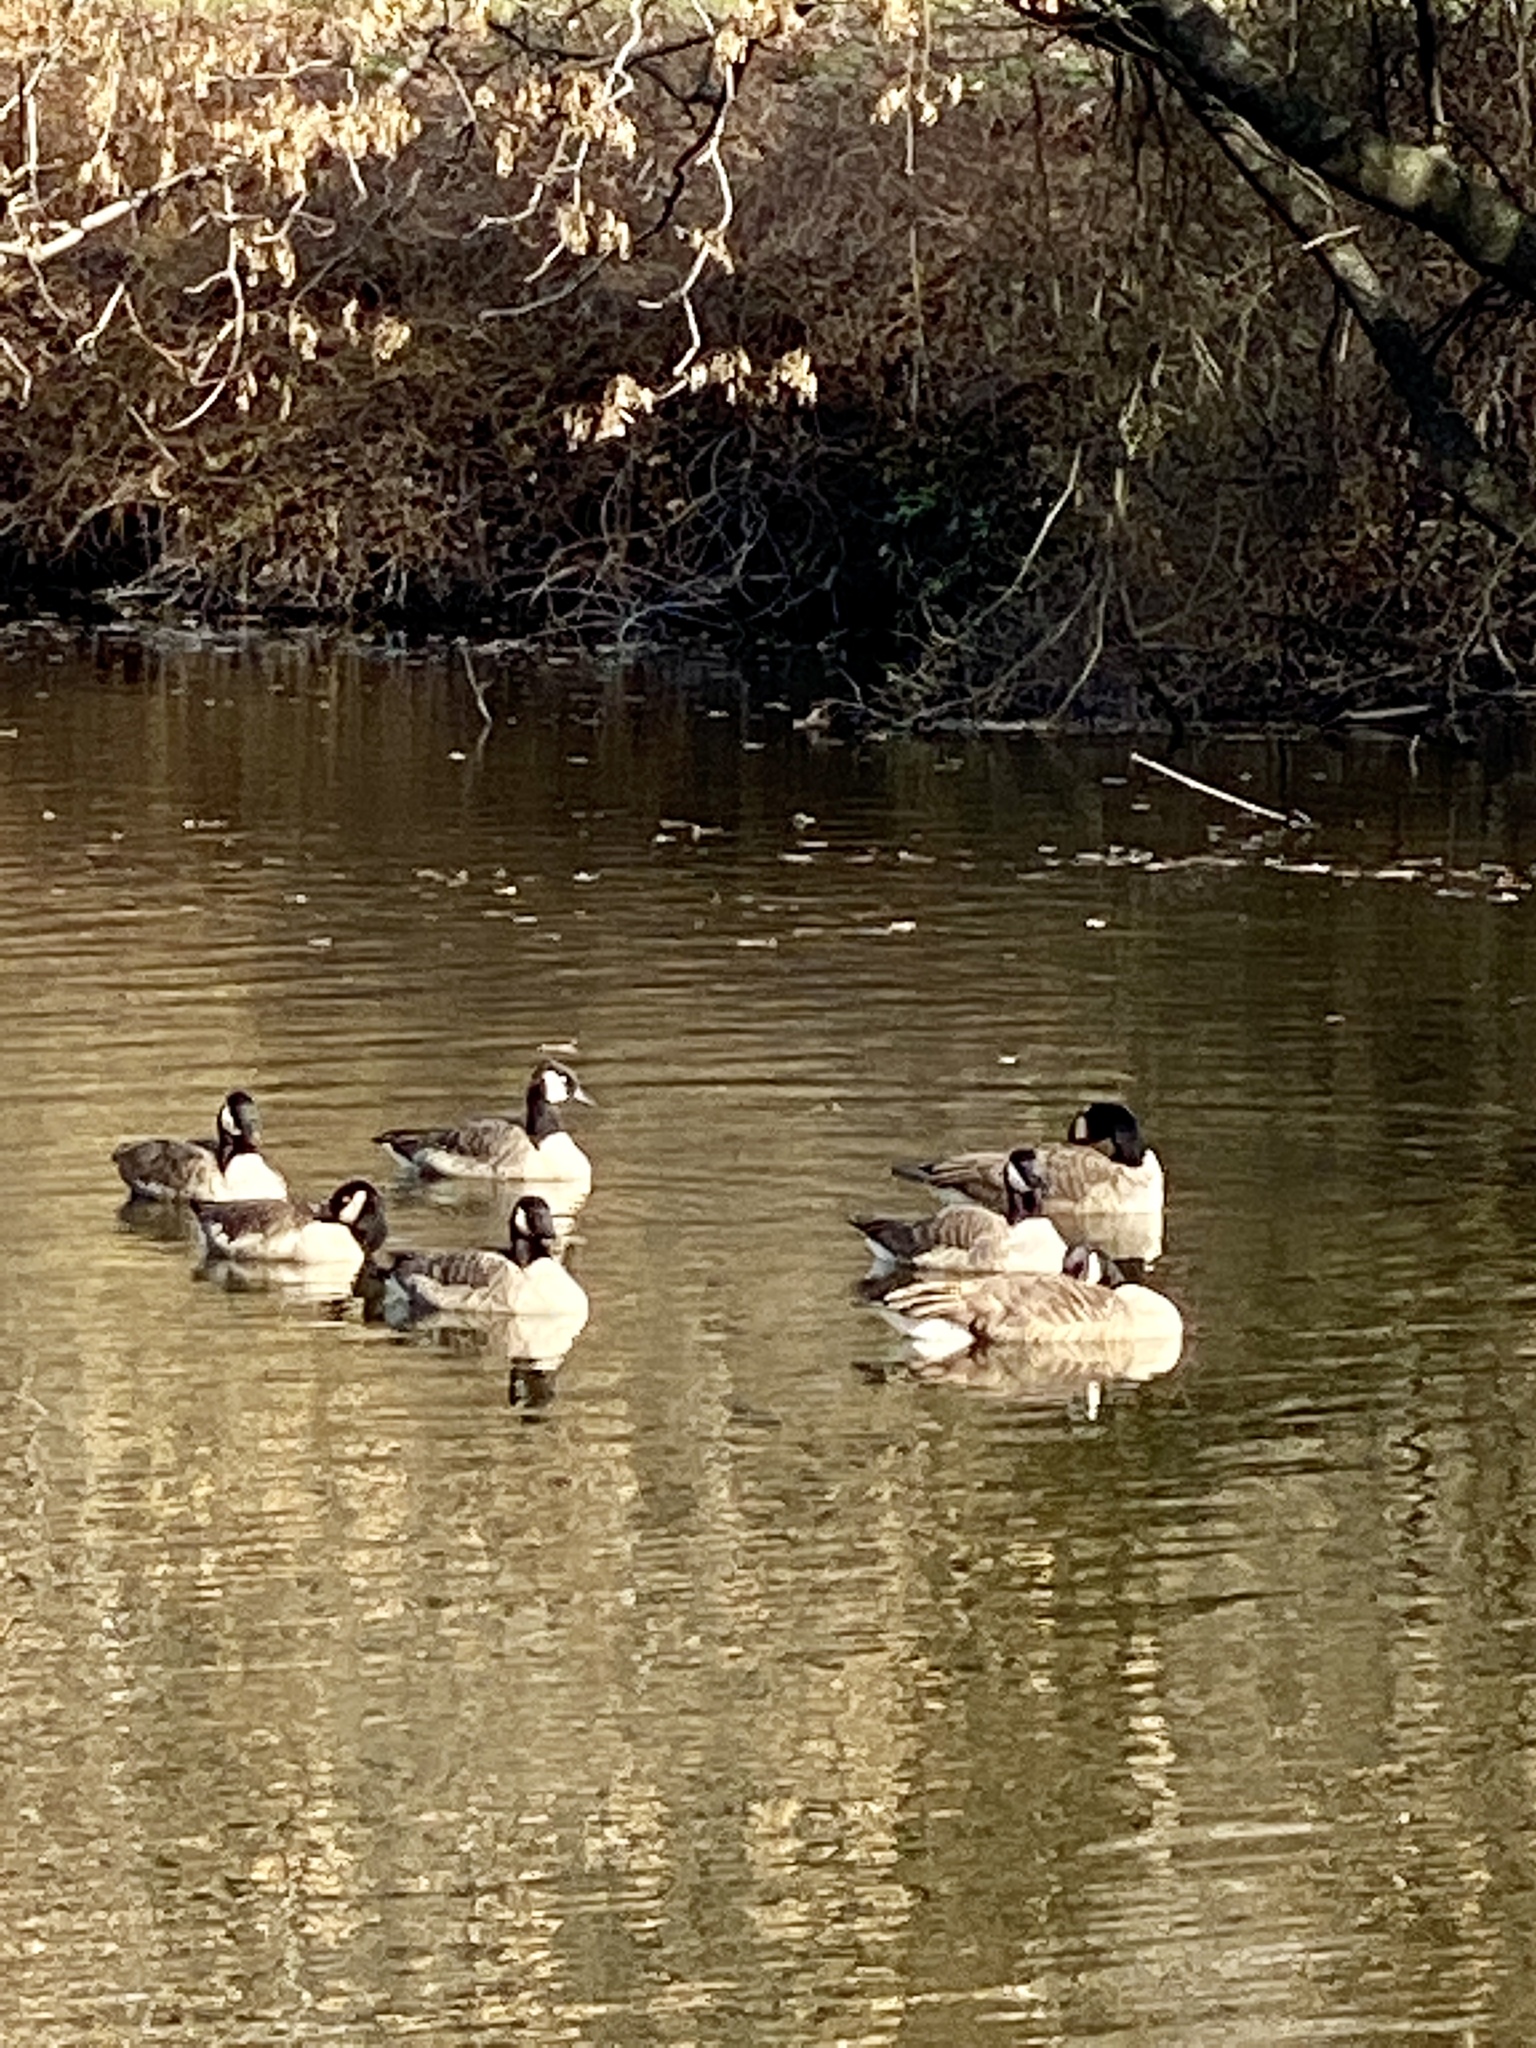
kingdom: Animalia
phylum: Chordata
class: Aves
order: Anseriformes
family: Anatidae
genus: Branta
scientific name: Branta canadensis
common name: Canada goose
